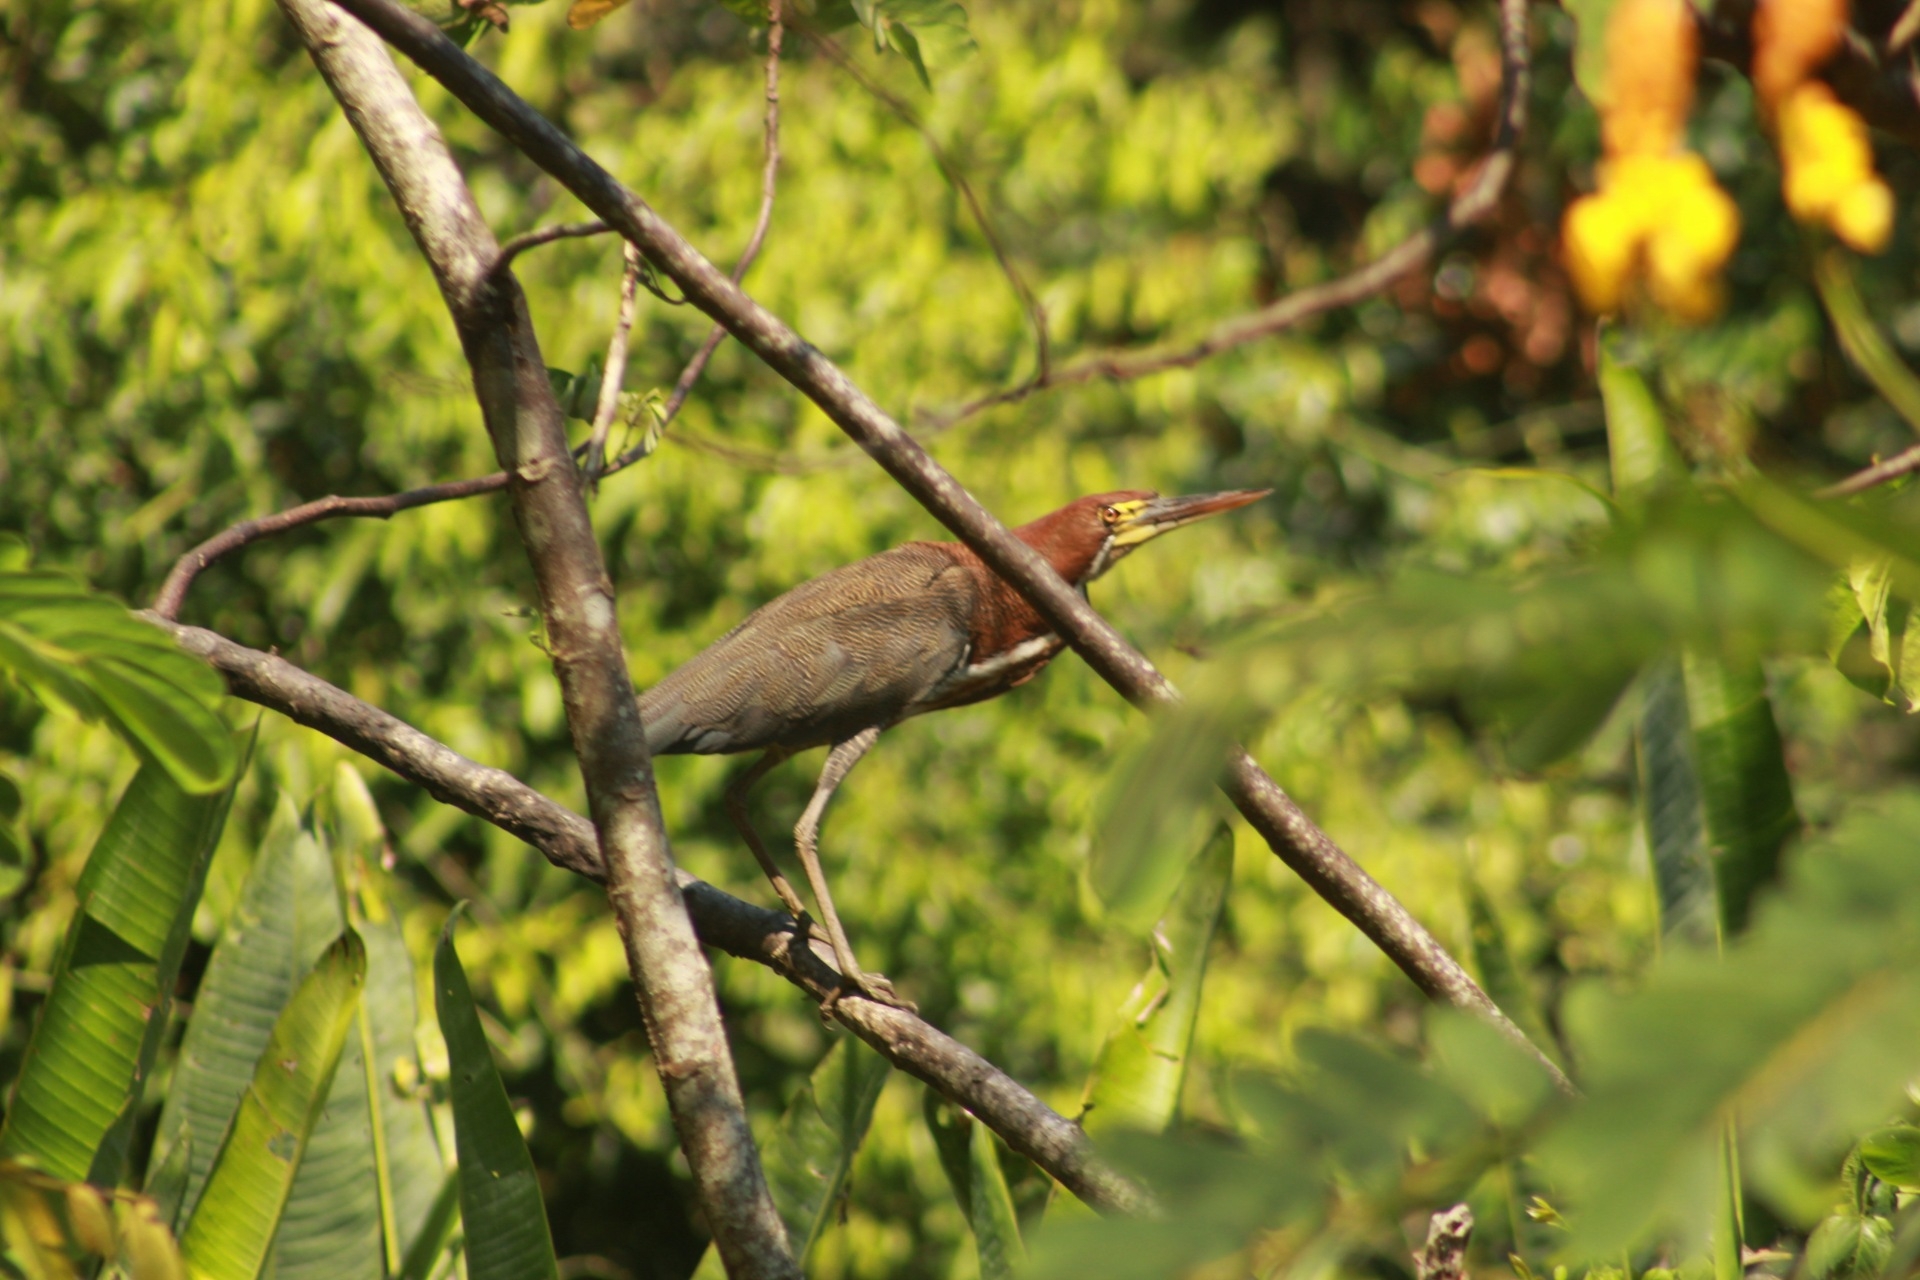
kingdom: Animalia
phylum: Chordata
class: Aves
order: Pelecaniformes
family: Ardeidae
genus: Tigrisoma
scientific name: Tigrisoma lineatum
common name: Rufescent tiger-heron
